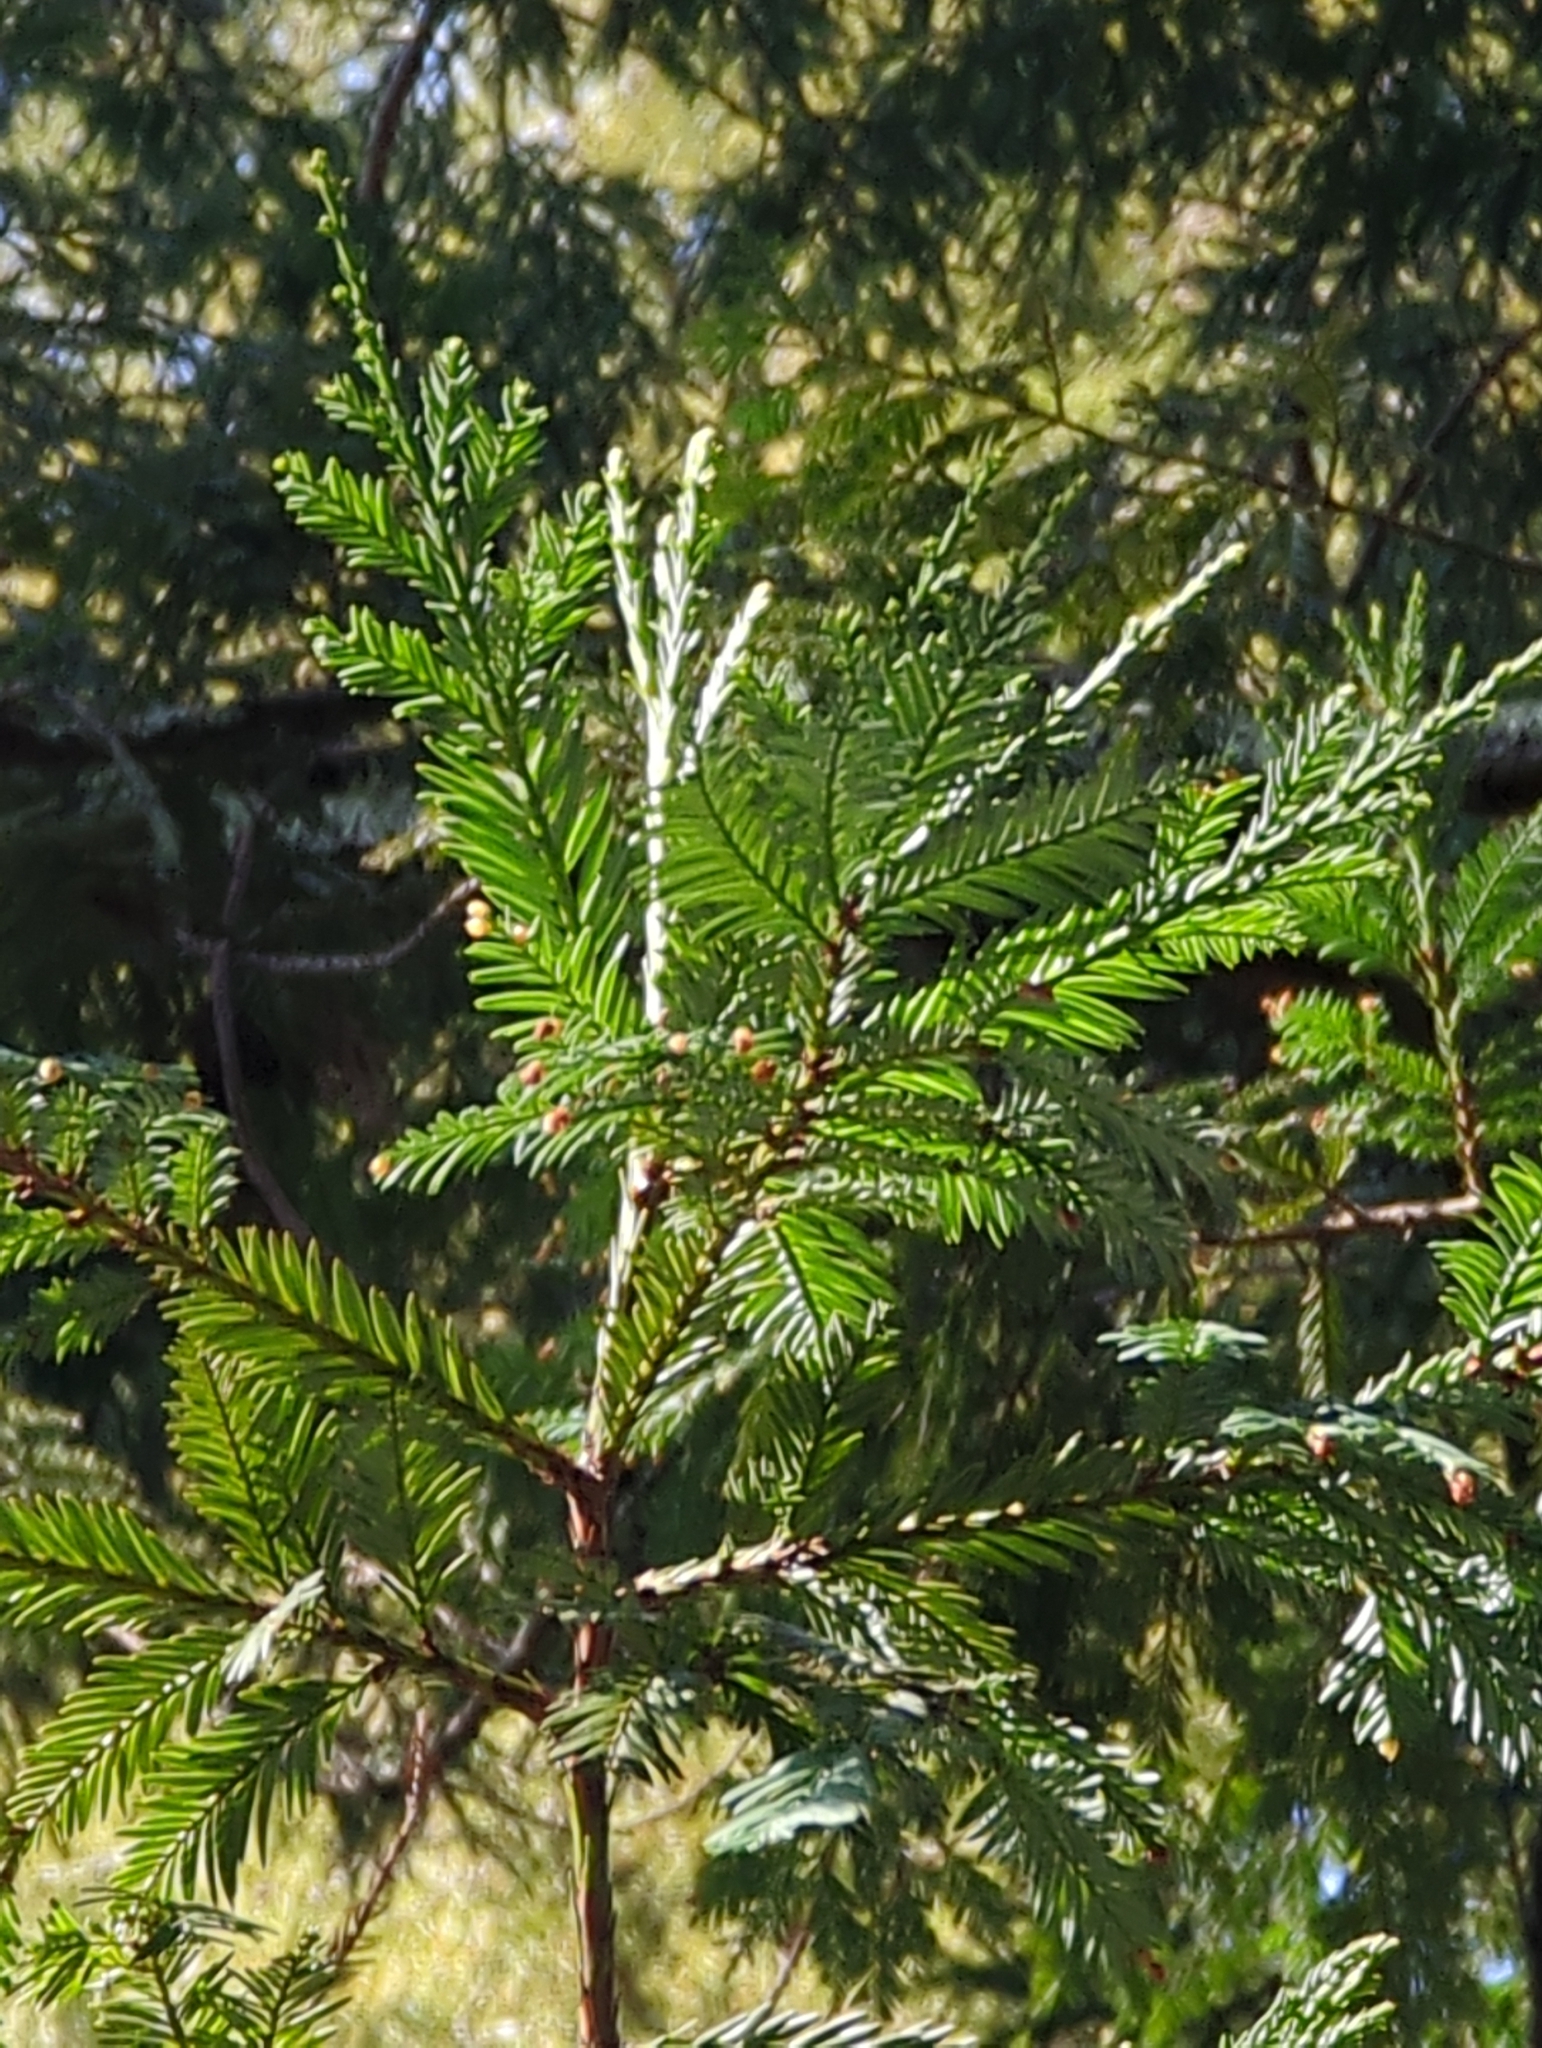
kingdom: Plantae
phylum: Tracheophyta
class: Pinopsida
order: Pinales
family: Cupressaceae
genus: Sequoia
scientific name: Sequoia sempervirens
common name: Coast redwood
